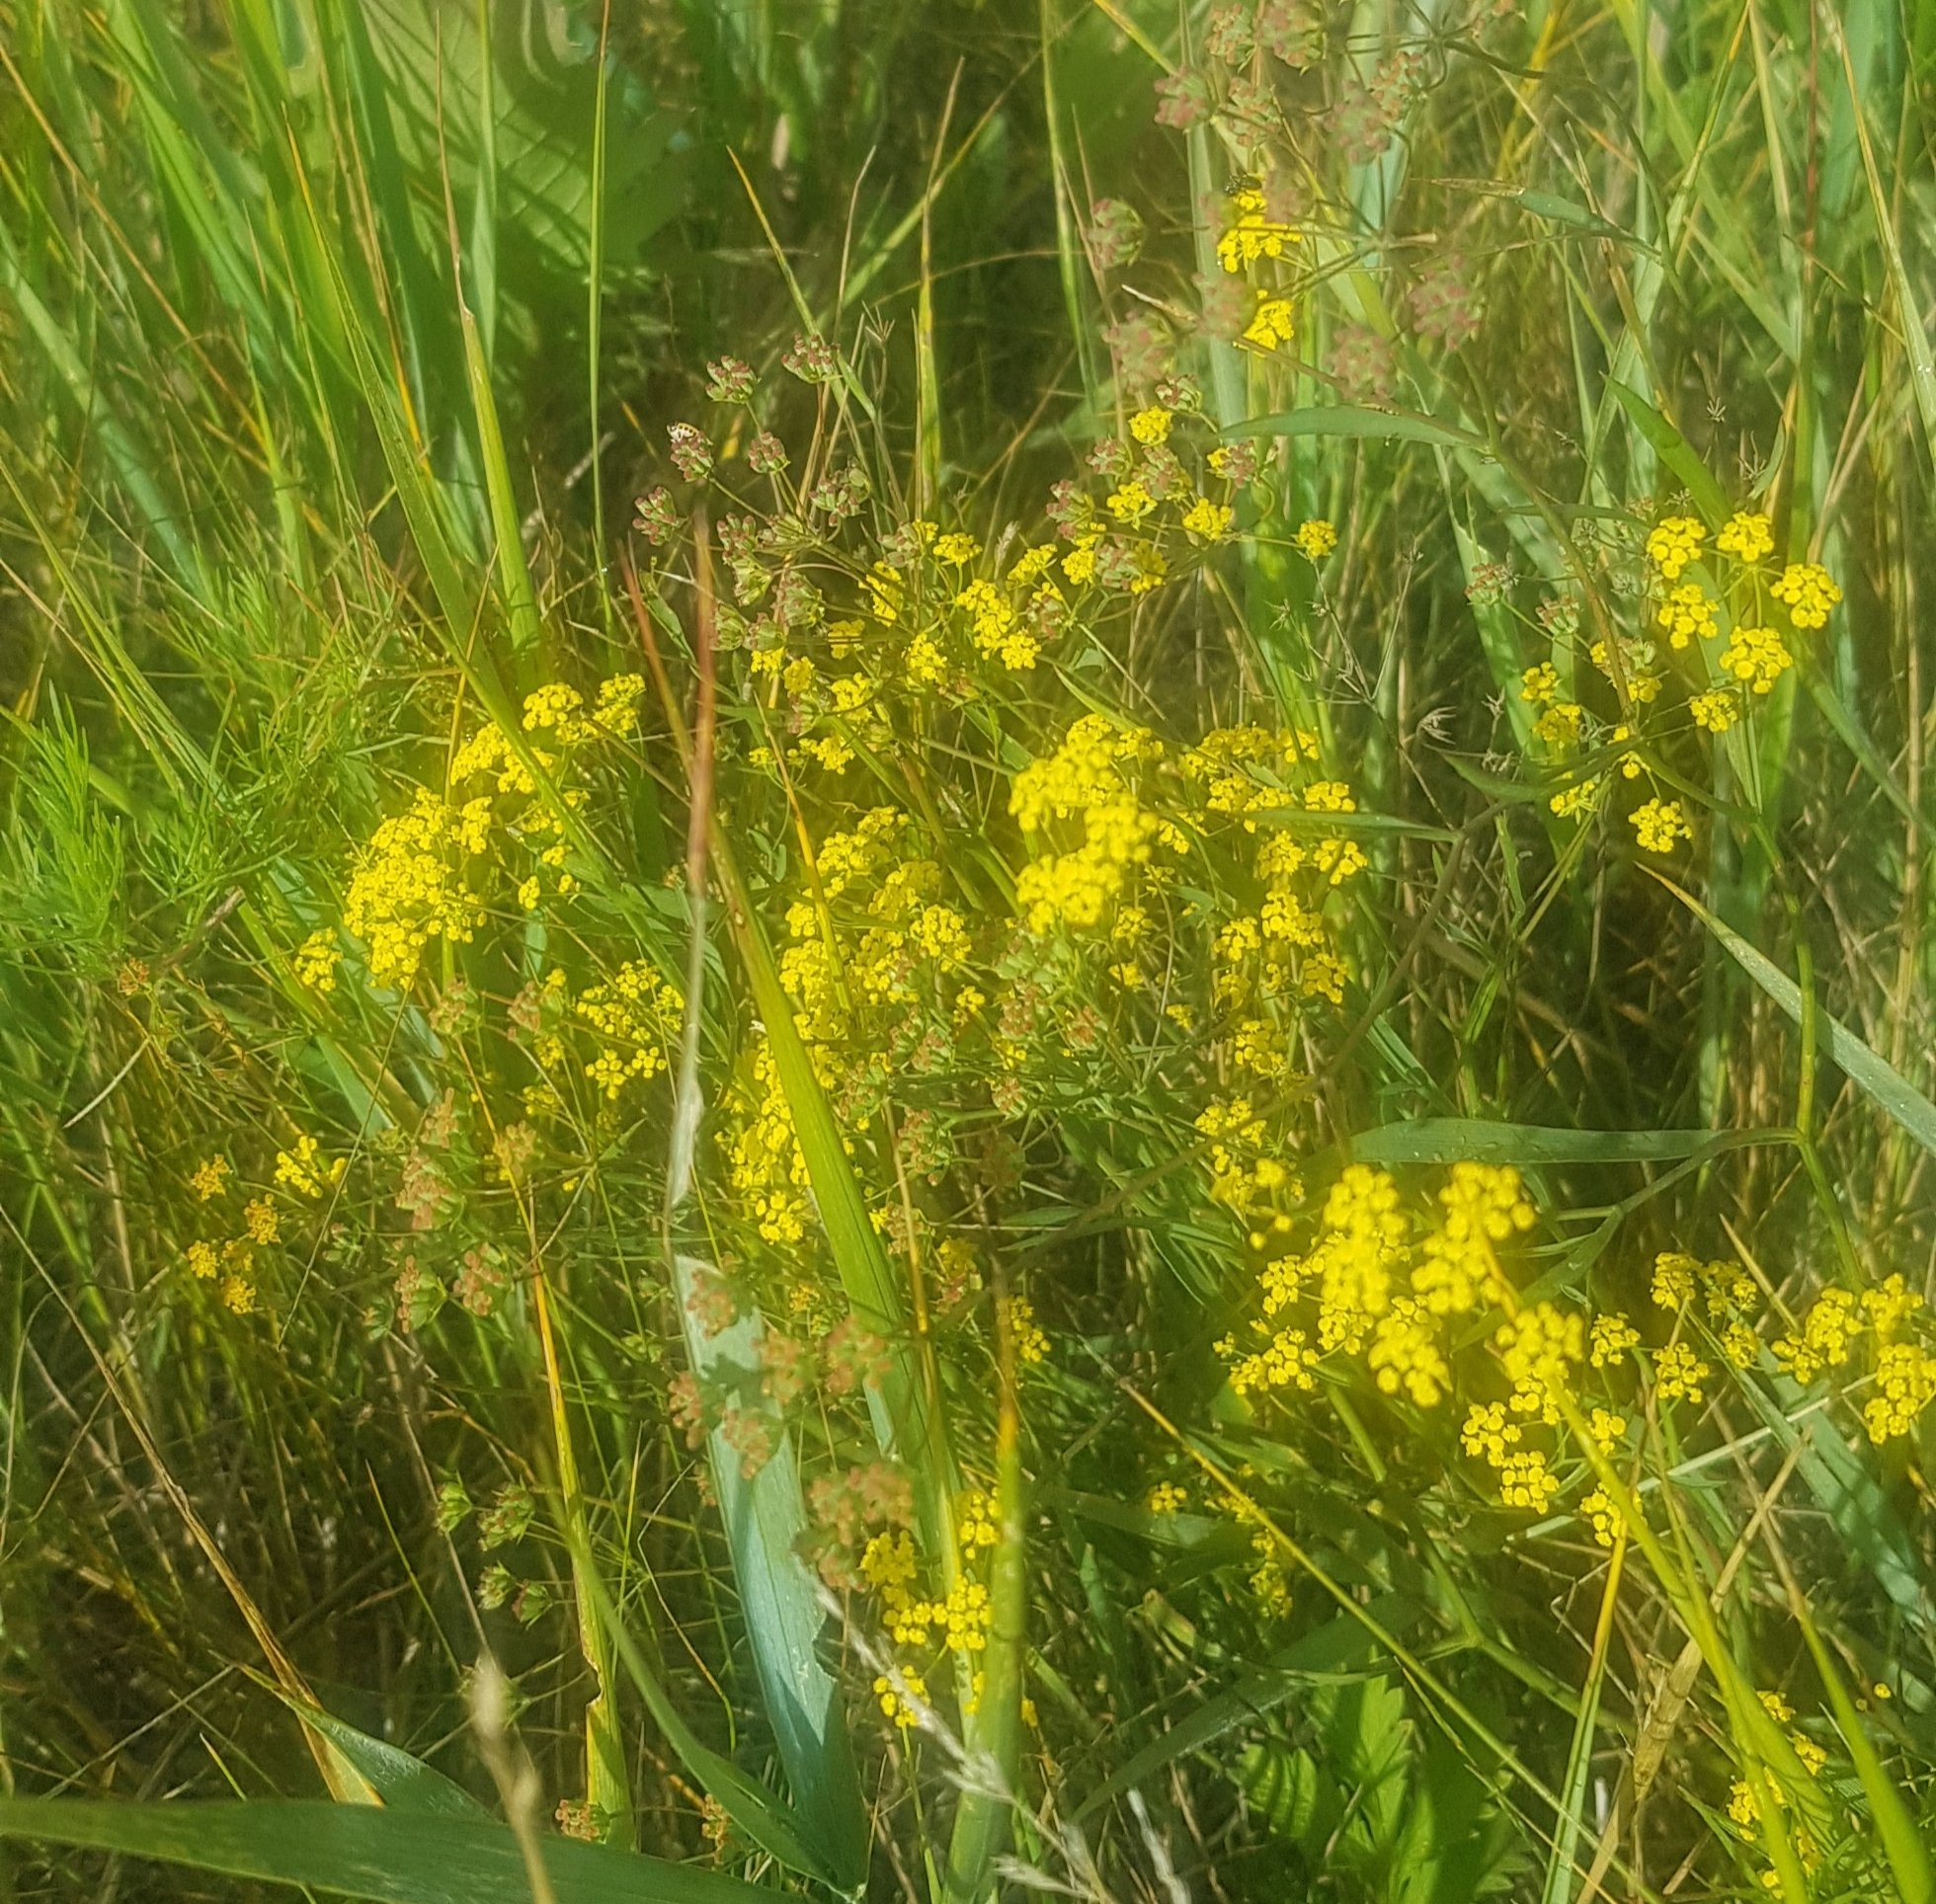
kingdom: Plantae
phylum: Tracheophyta
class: Magnoliopsida
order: Apiales
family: Apiaceae
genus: Bupleurum
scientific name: Bupleurum scorzonerifolium
